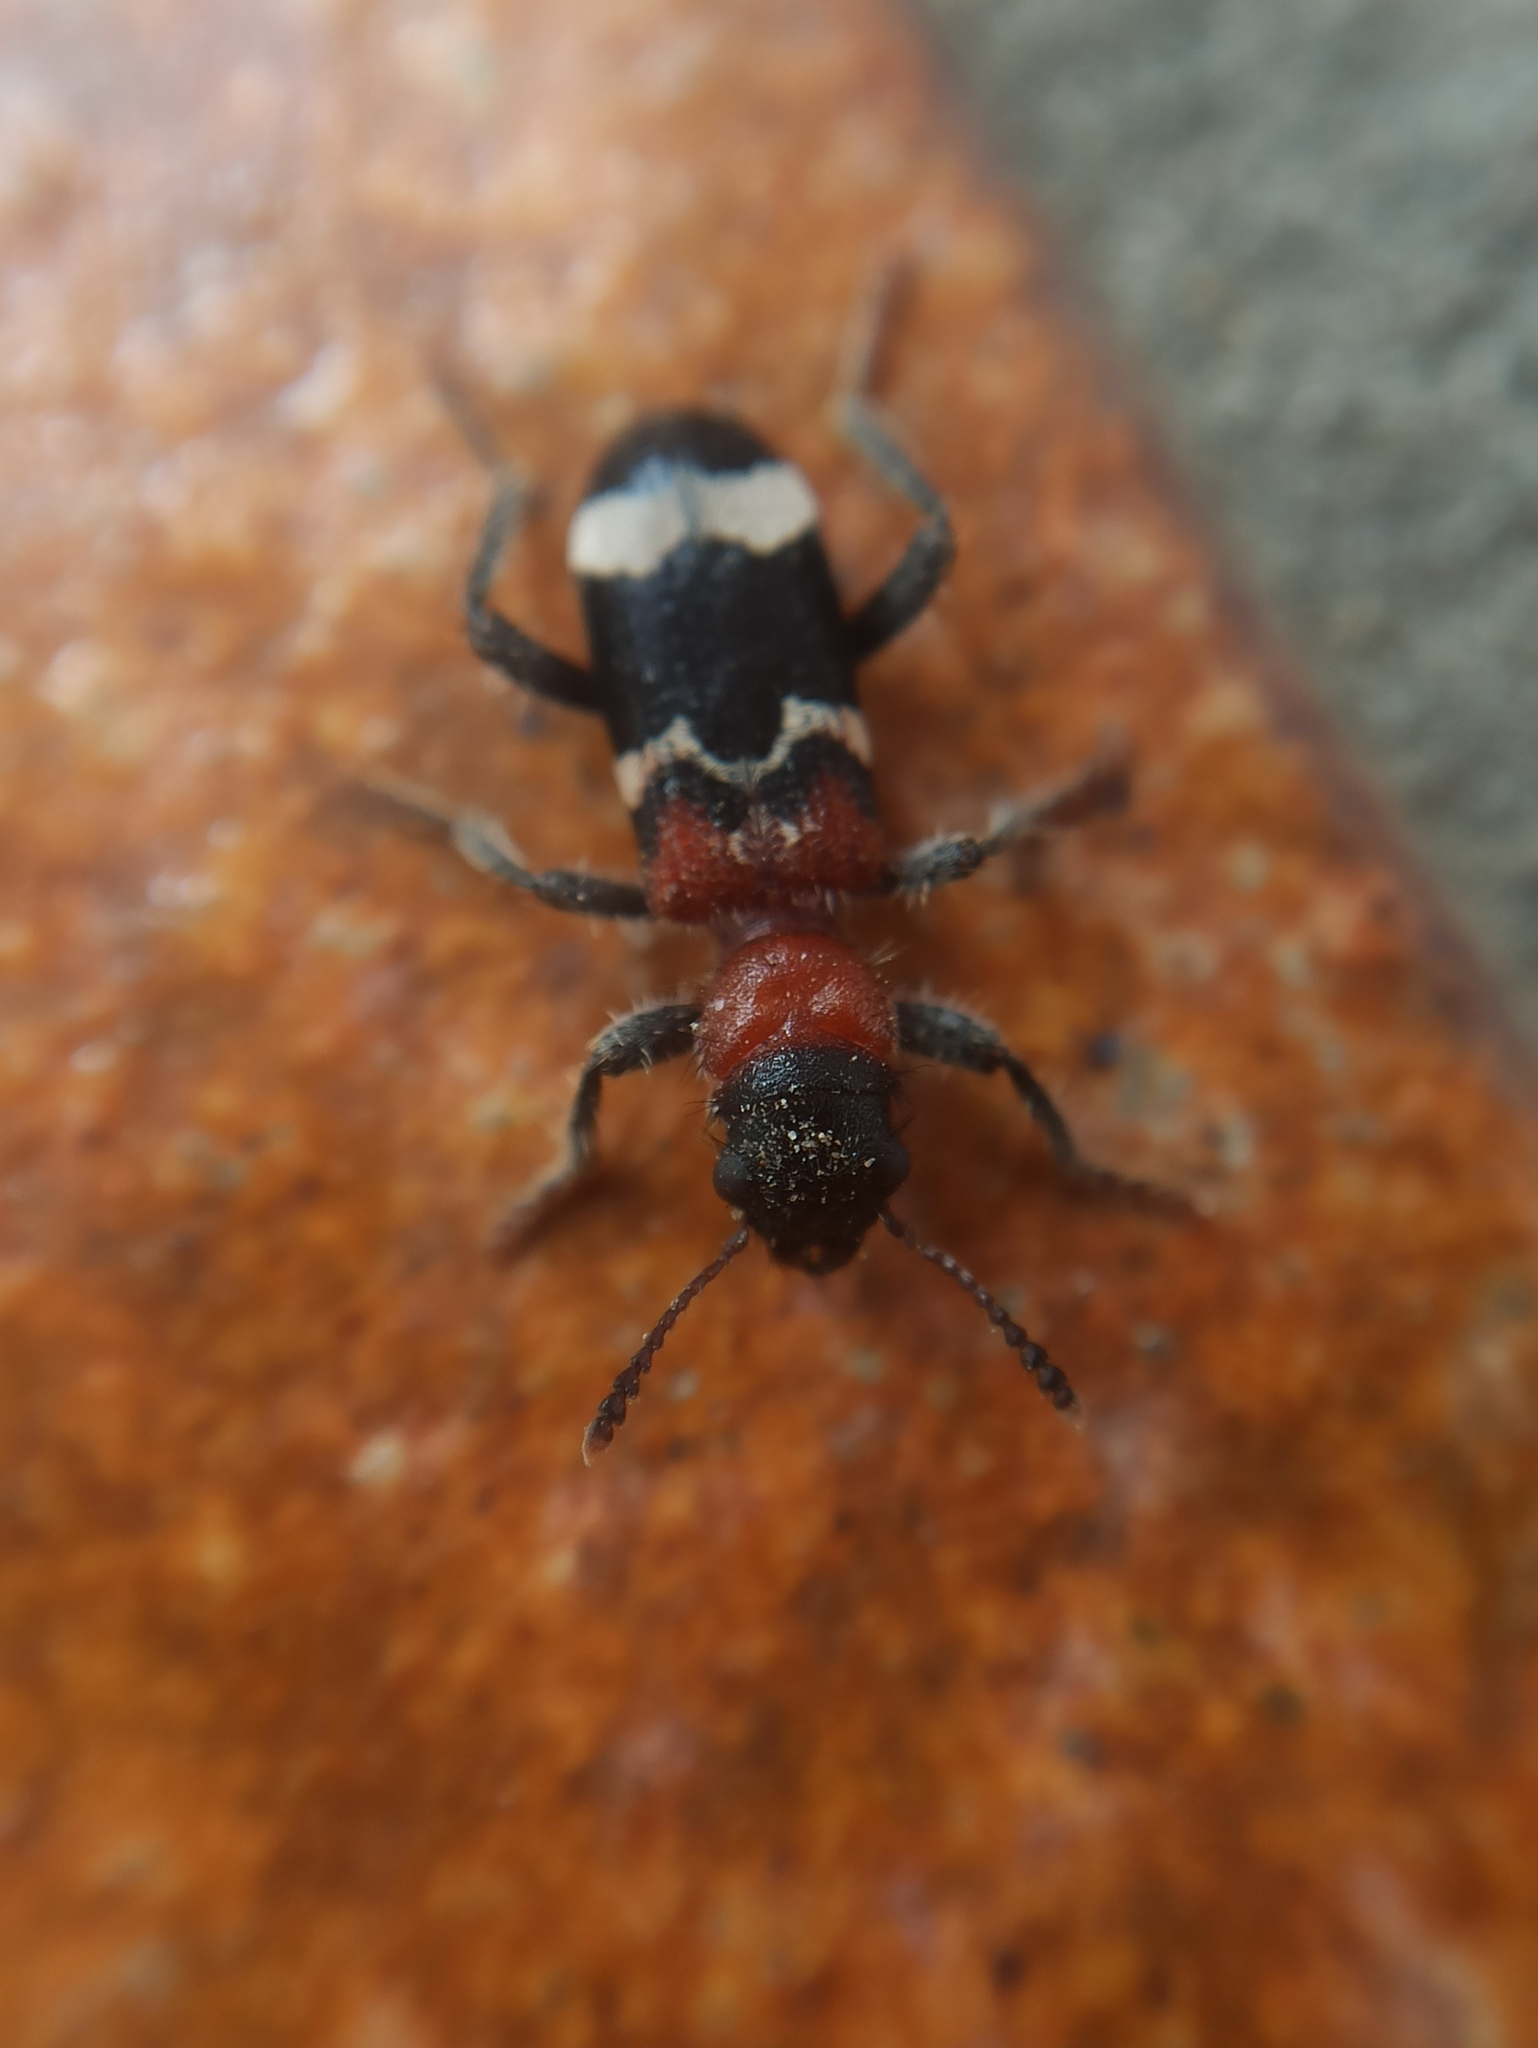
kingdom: Animalia
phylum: Arthropoda
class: Insecta
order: Coleoptera
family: Cleridae
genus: Thanasimus
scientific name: Thanasimus formicarius
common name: Ant beetle
